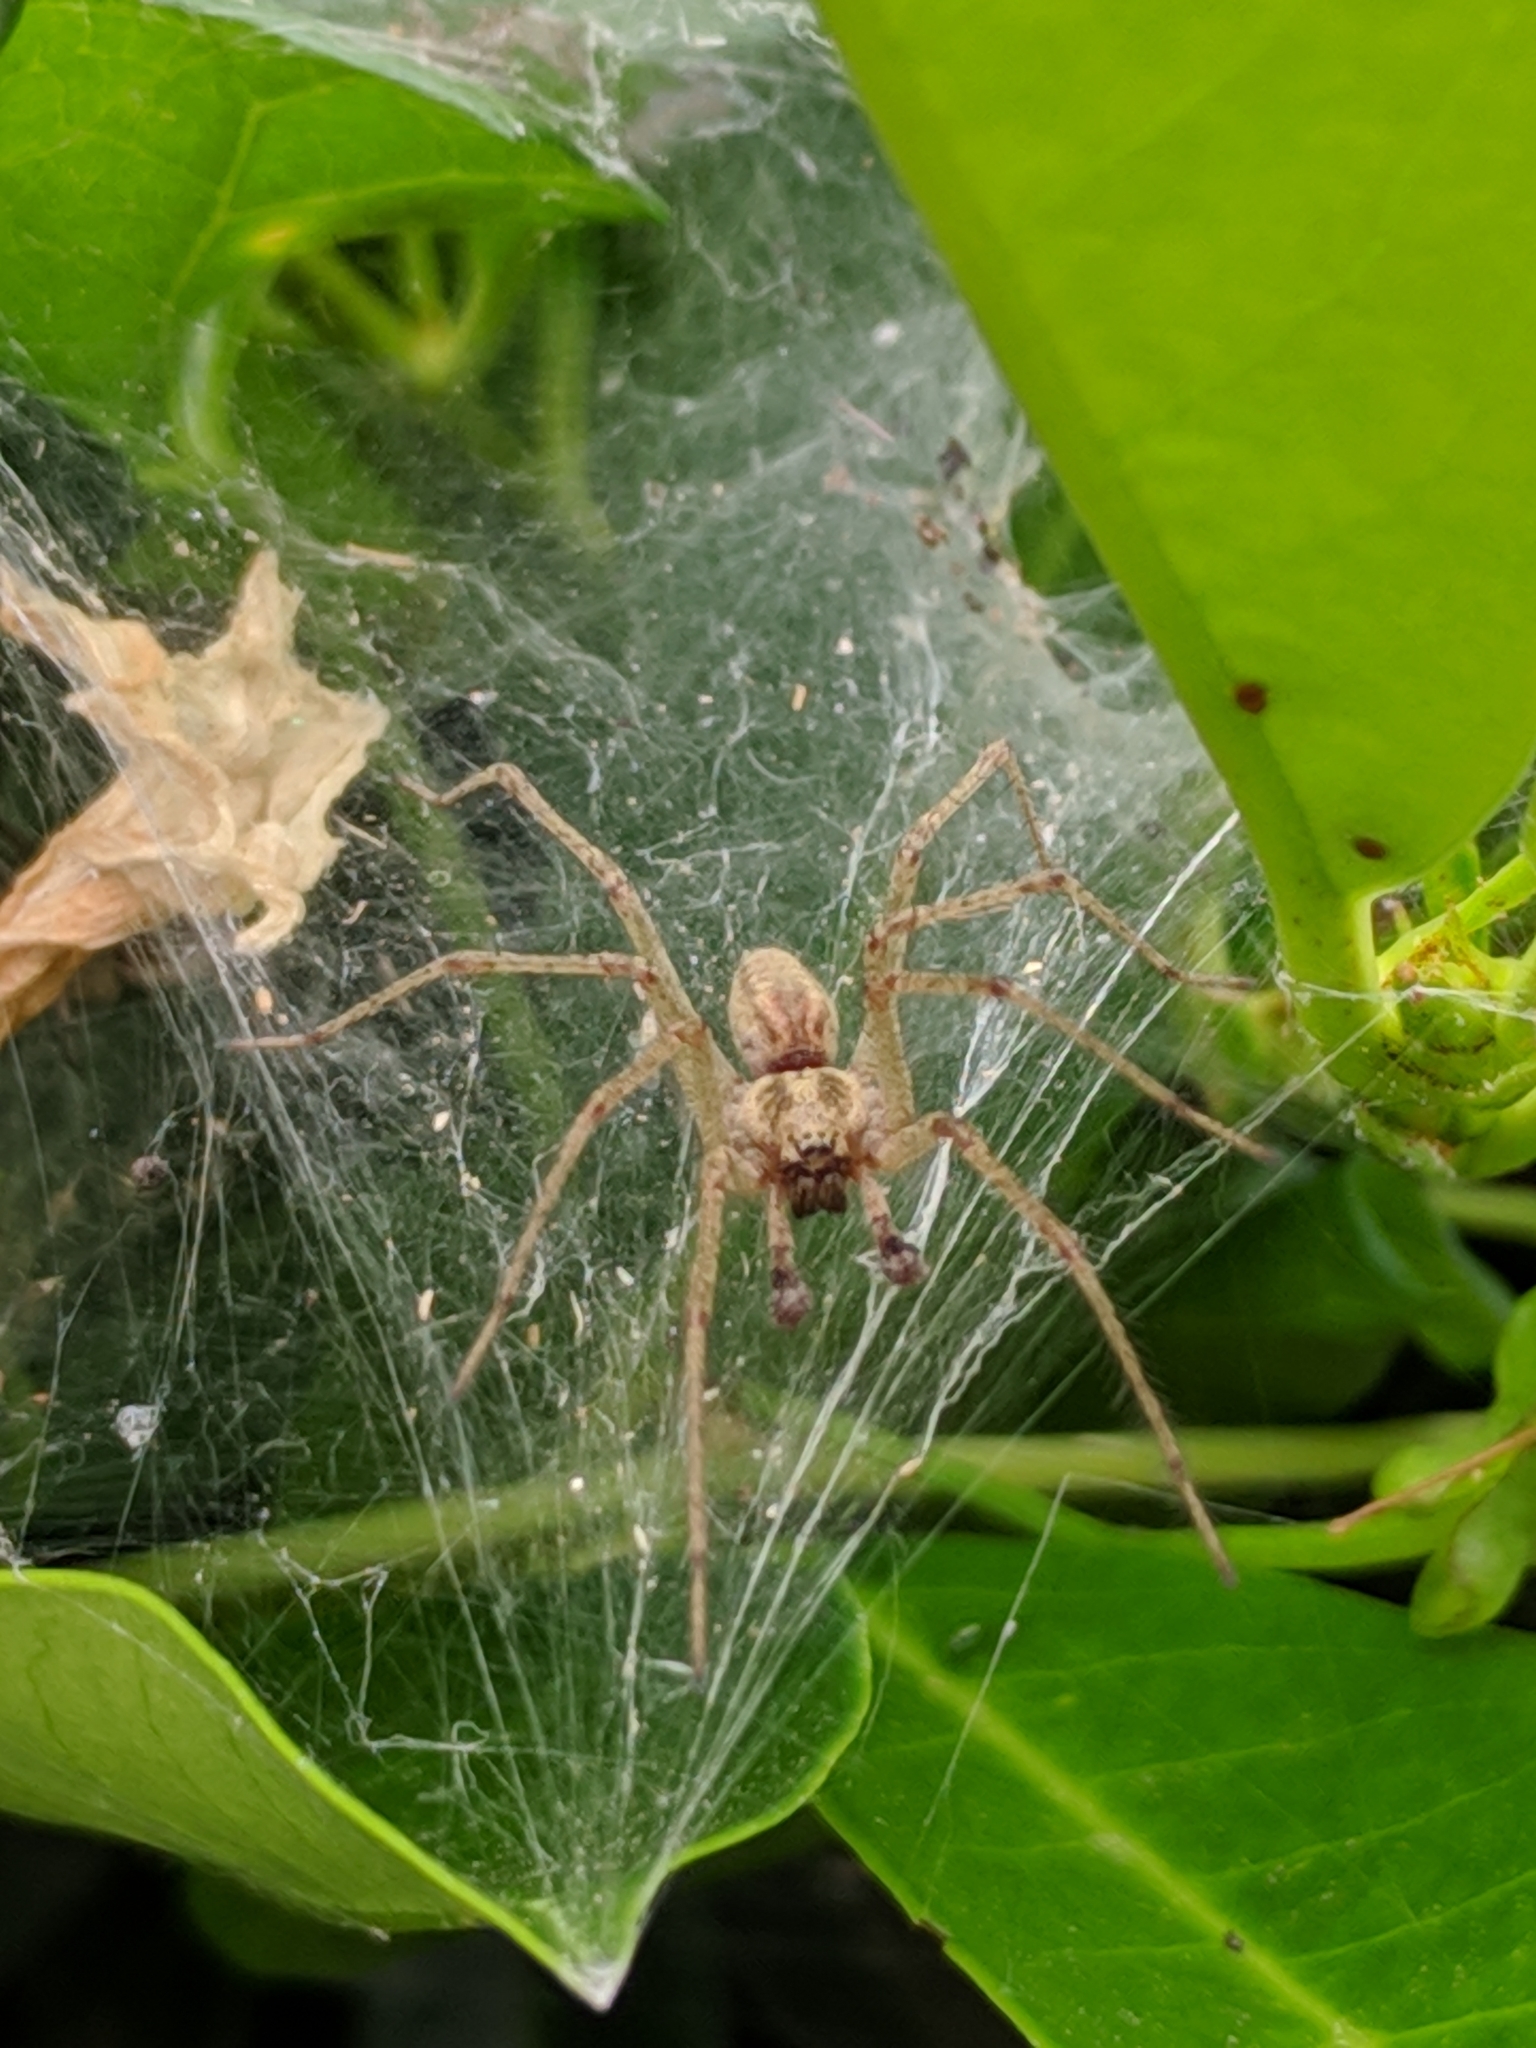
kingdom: Animalia
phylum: Arthropoda
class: Arachnida
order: Araneae
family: Agelenidae
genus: Allagelena
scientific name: Allagelena gracilens
